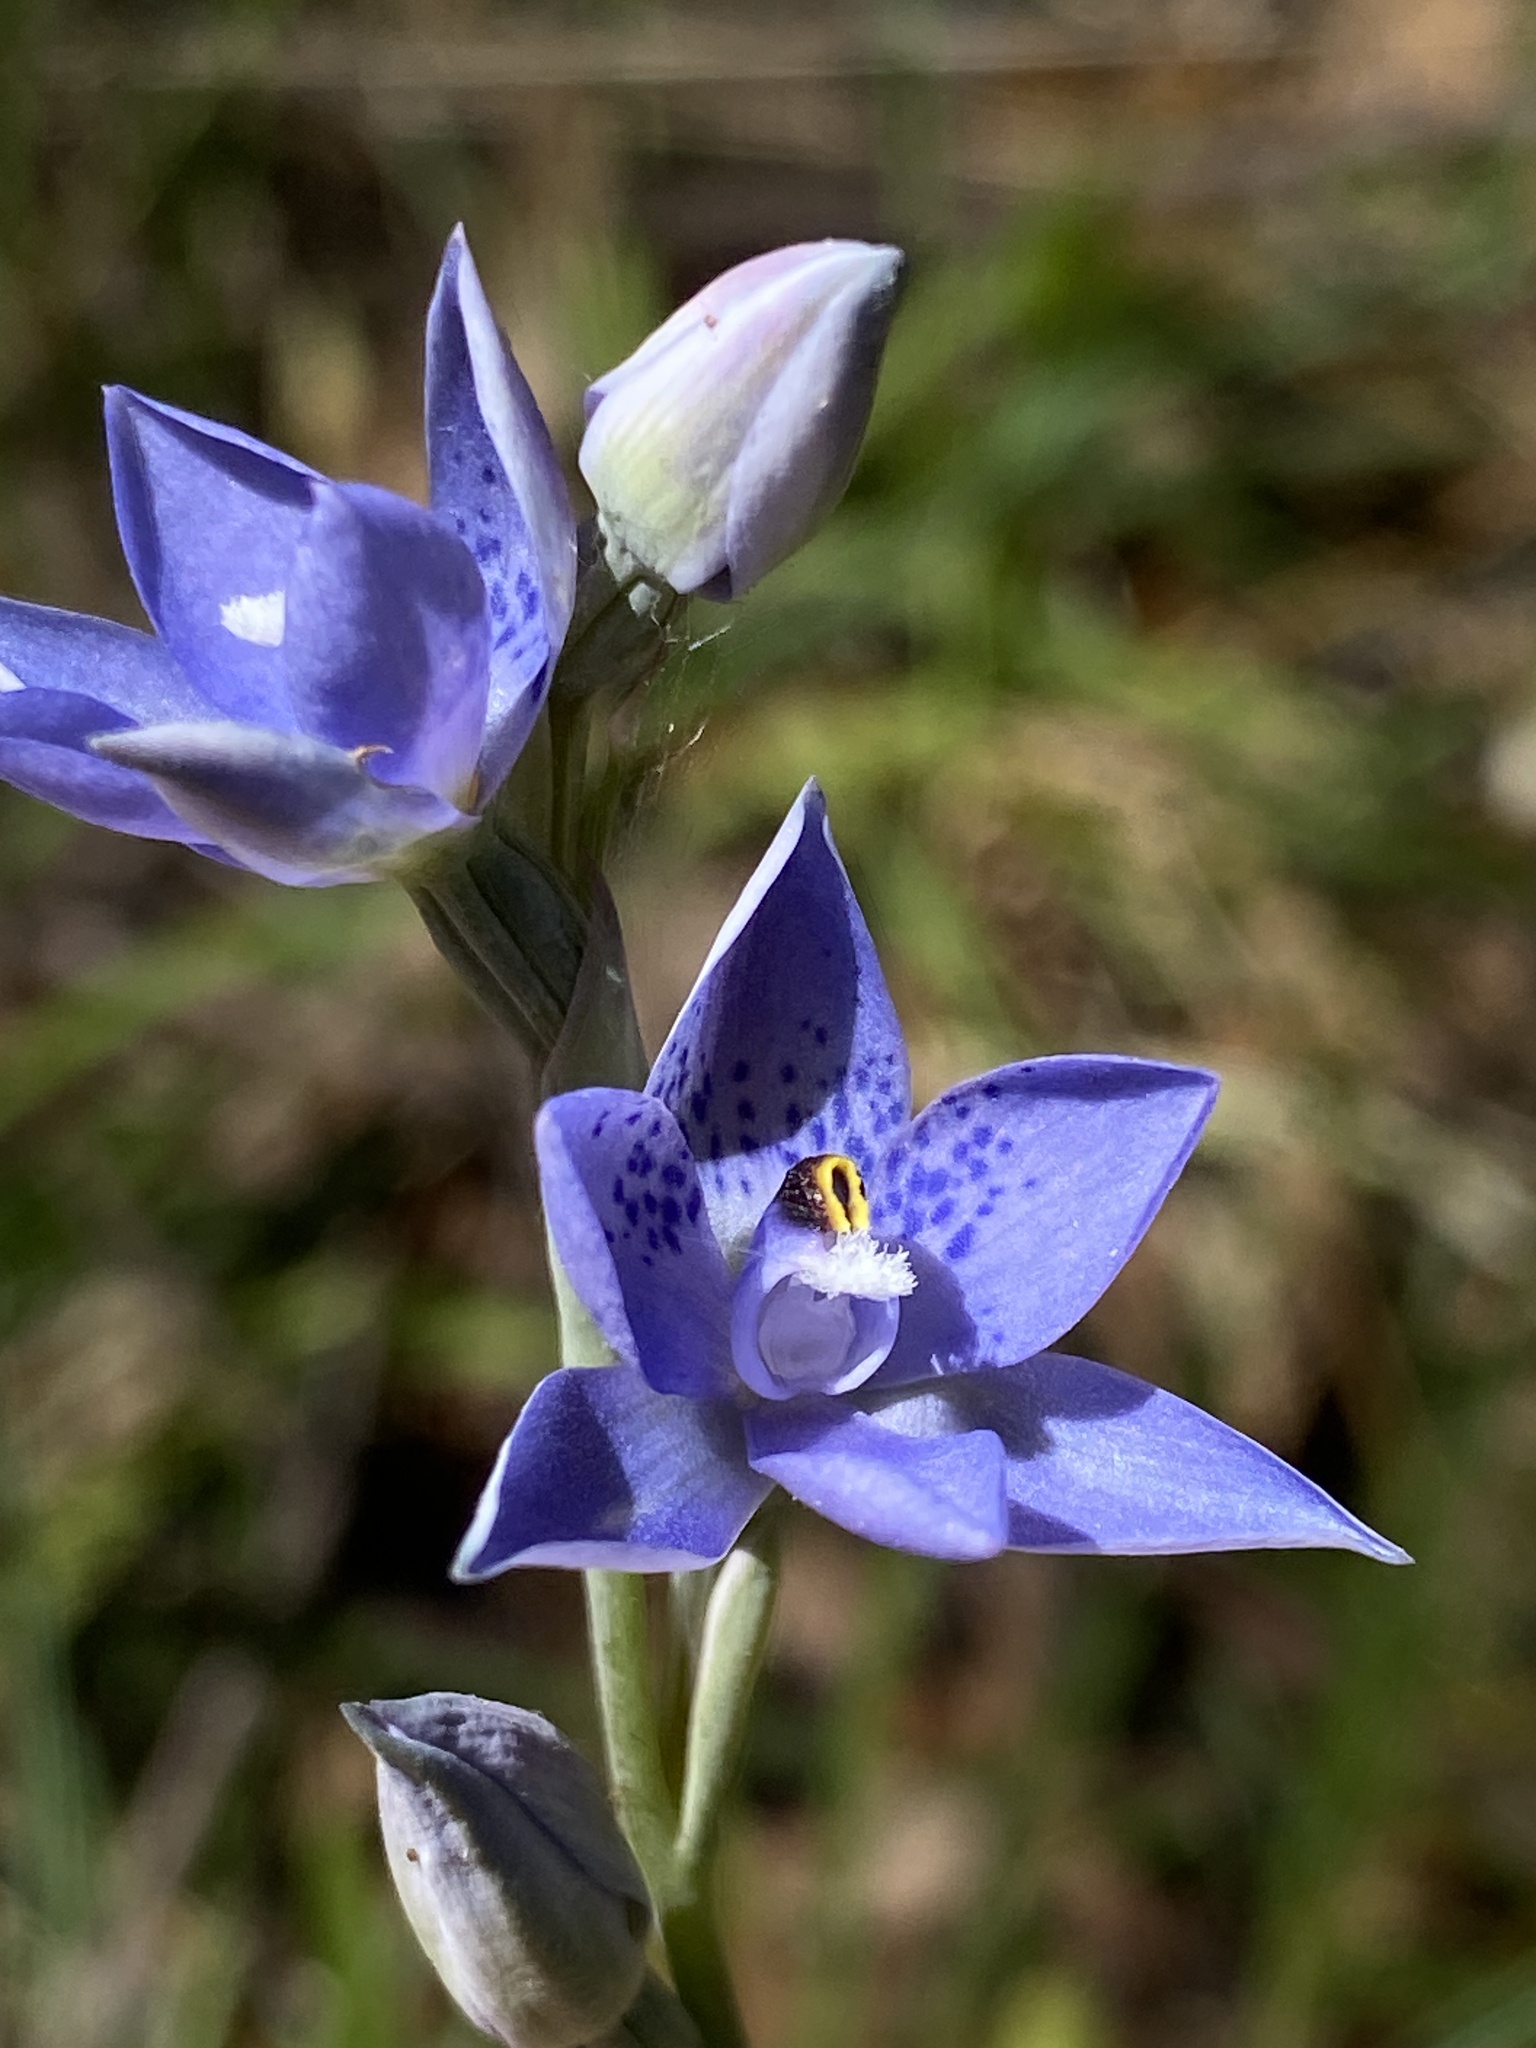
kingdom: Plantae
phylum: Tracheophyta
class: Liliopsida
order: Asparagales
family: Orchidaceae
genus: Thelymitra
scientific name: Thelymitra corrugata
